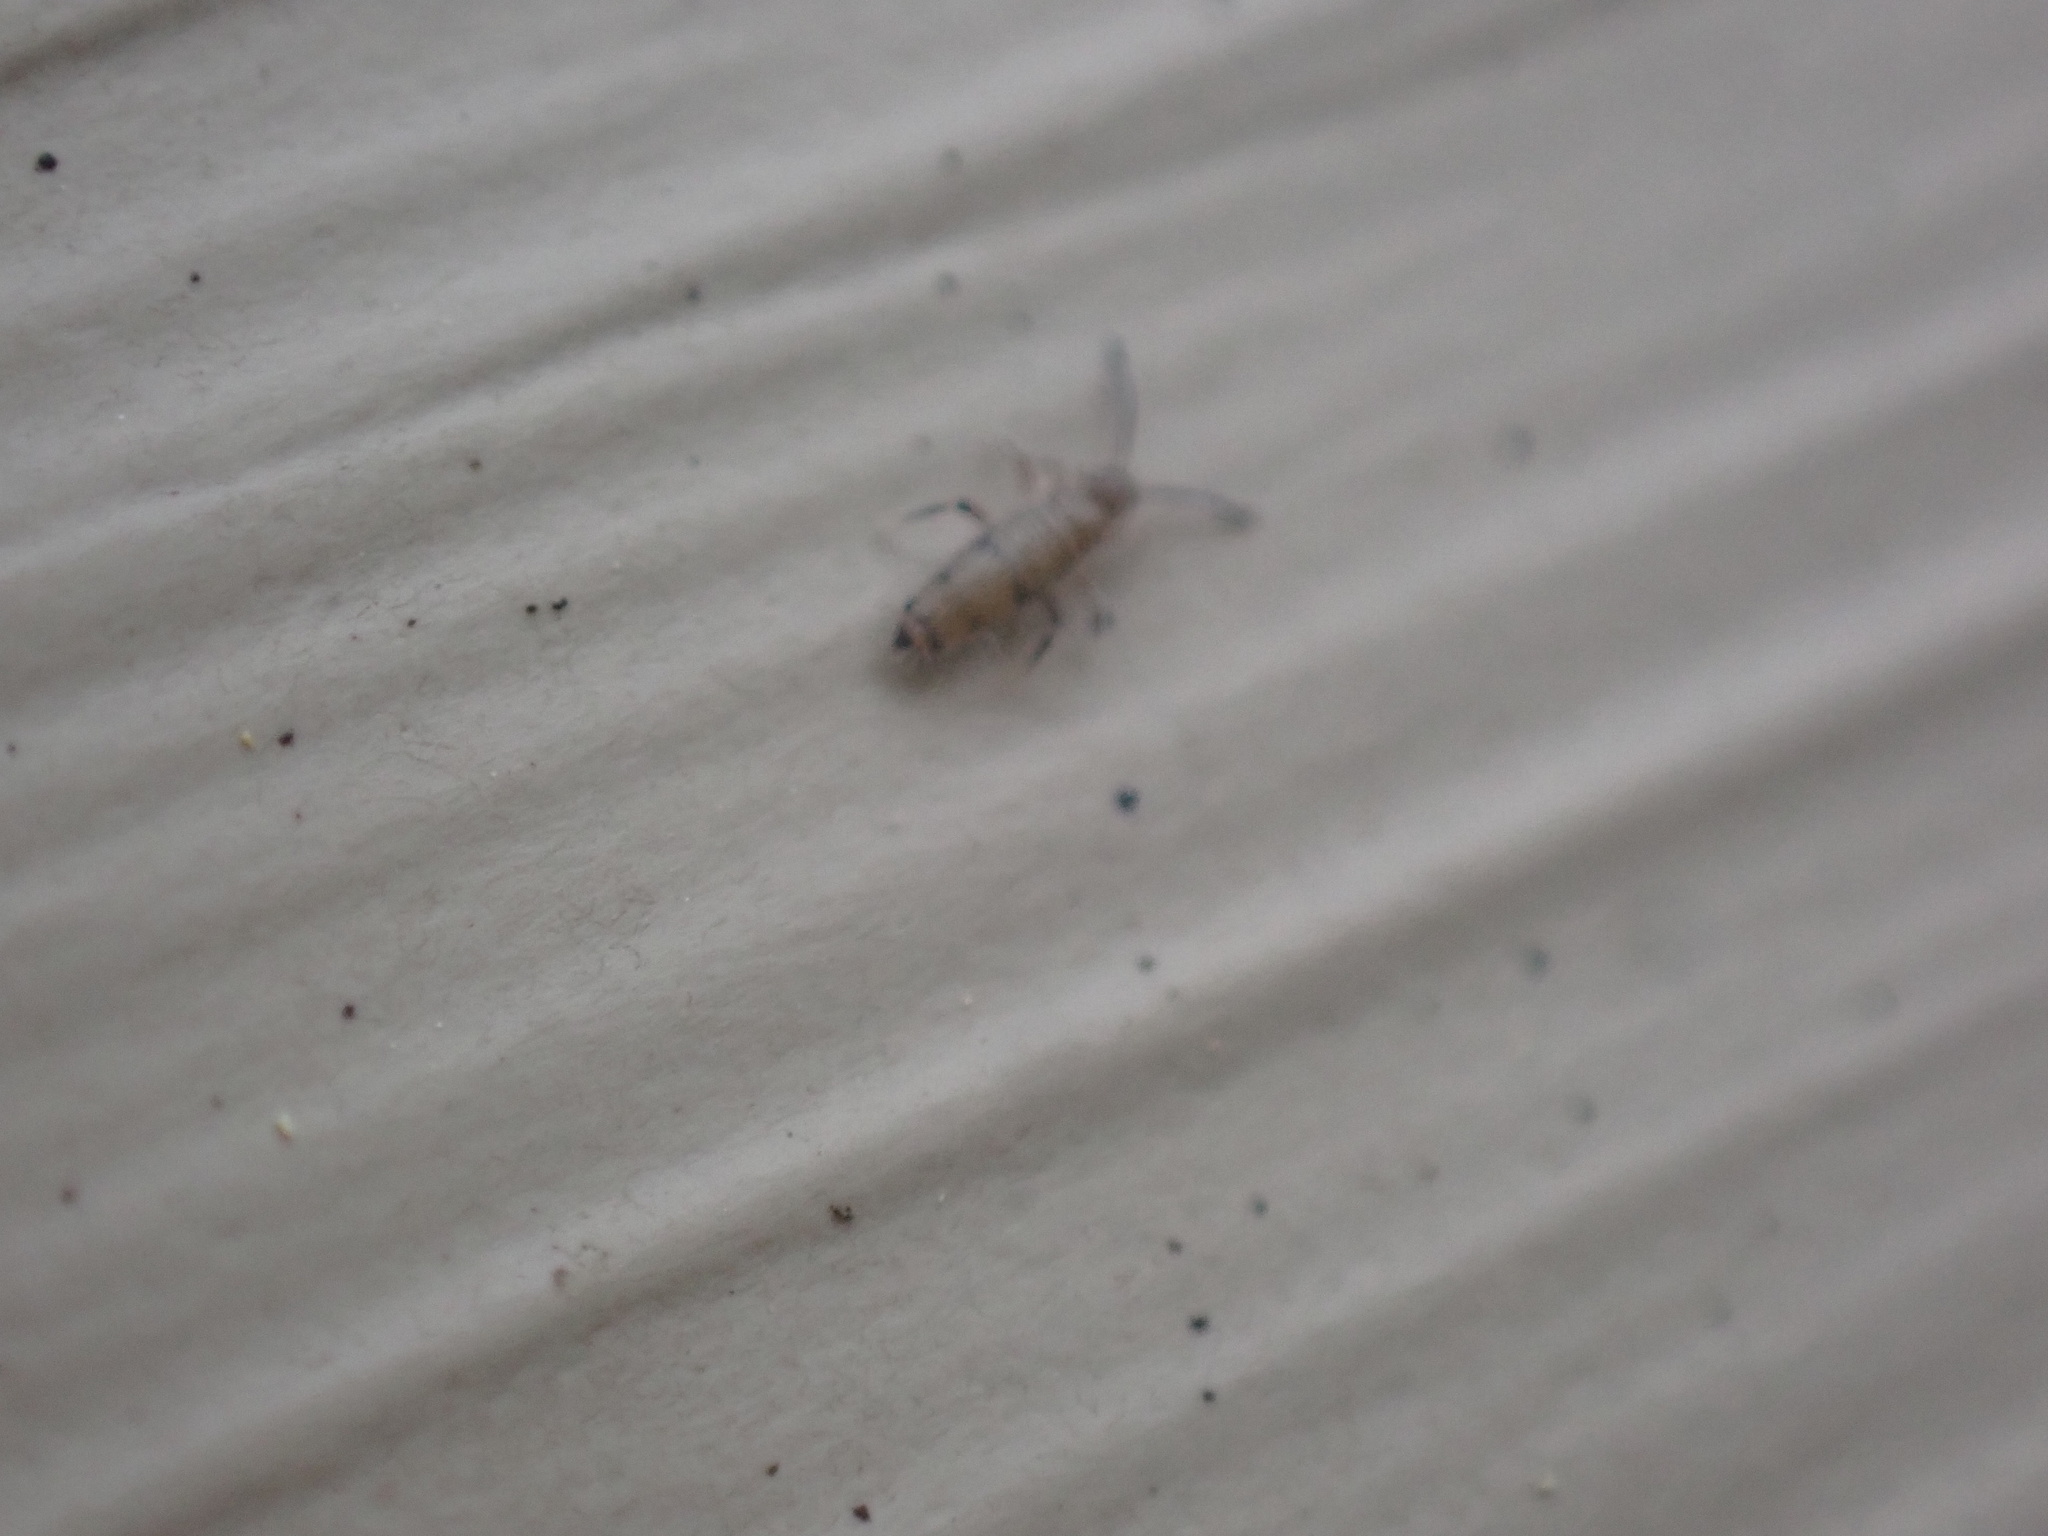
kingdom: Animalia
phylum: Arthropoda
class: Collembola
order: Entomobryomorpha
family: Entomobryidae
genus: Willowsia
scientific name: Willowsia nigromaculata
